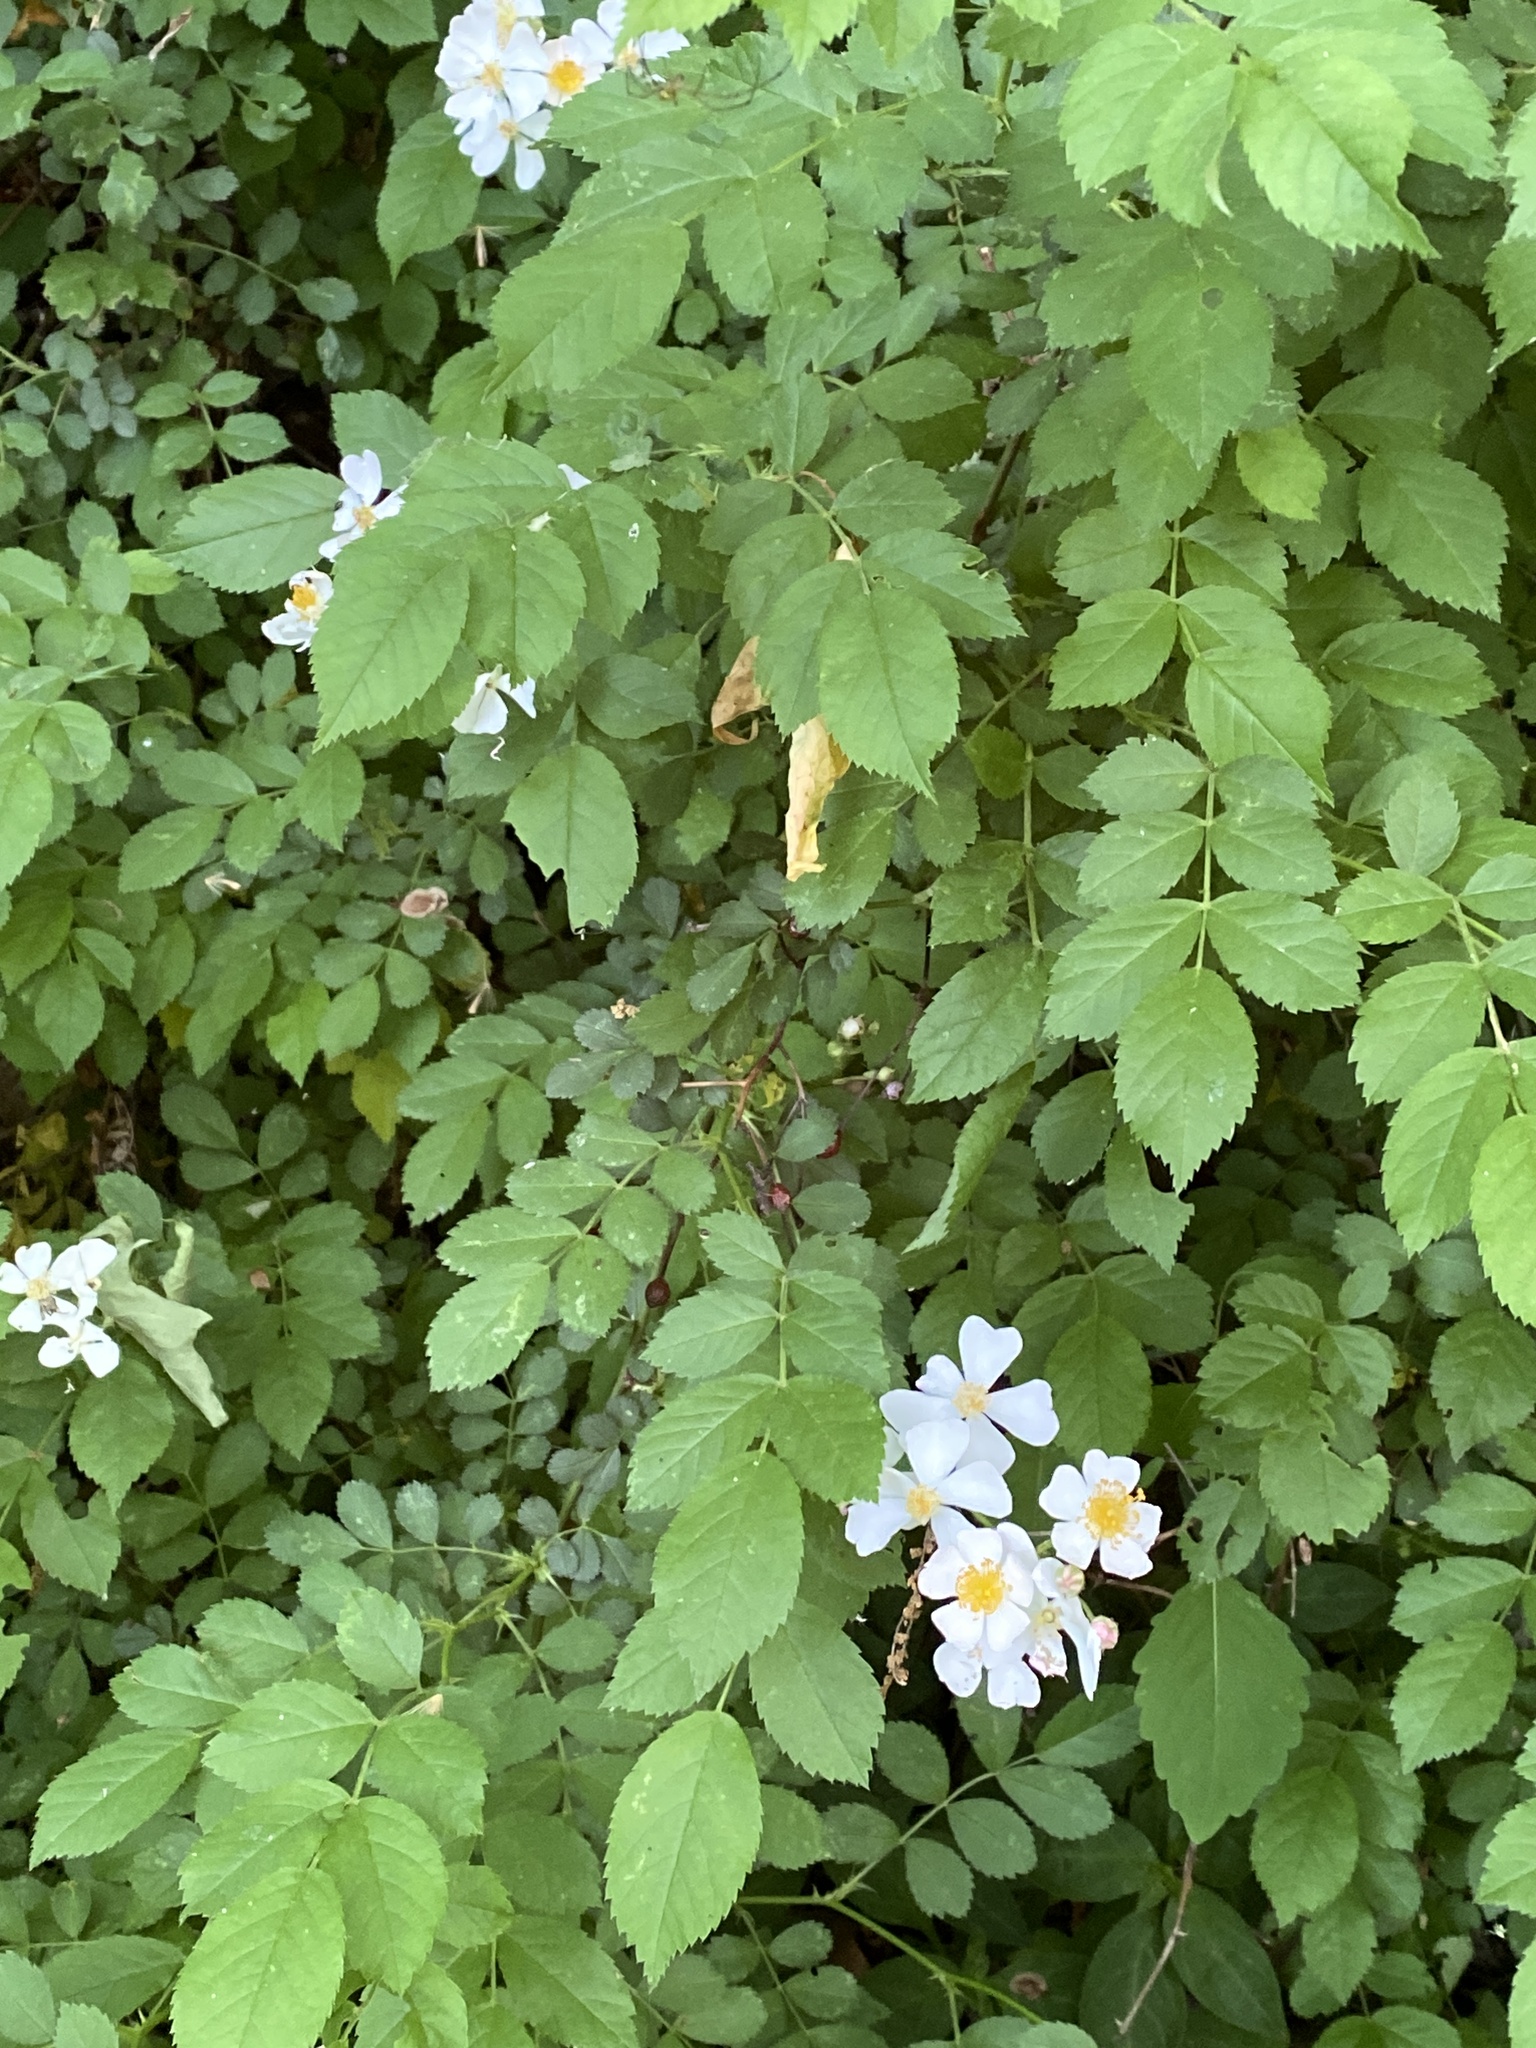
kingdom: Plantae
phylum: Tracheophyta
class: Magnoliopsida
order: Rosales
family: Rosaceae
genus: Rosa
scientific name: Rosa multiflora
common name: Multiflora rose
